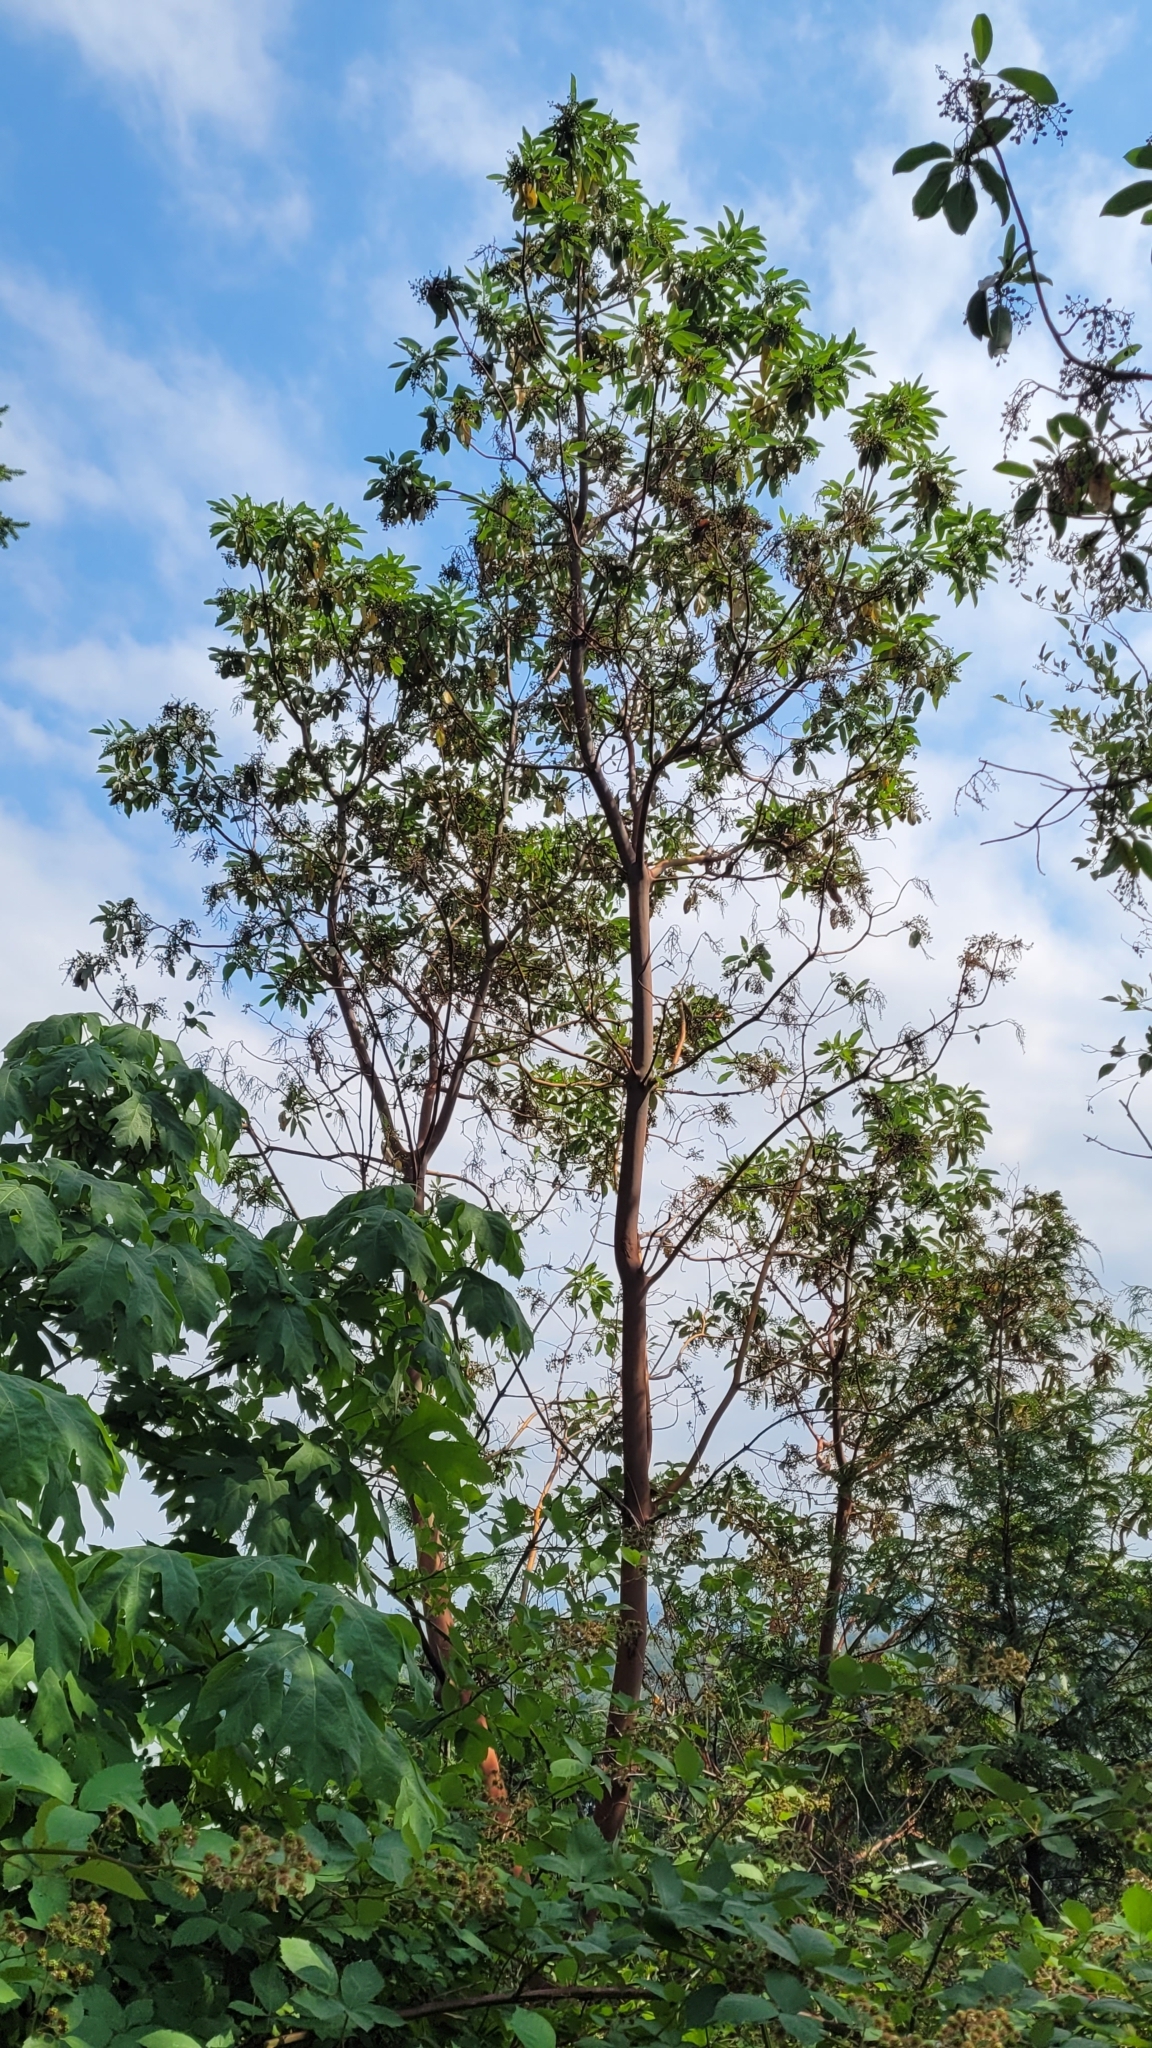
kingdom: Plantae
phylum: Tracheophyta
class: Magnoliopsida
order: Ericales
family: Ericaceae
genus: Arbutus
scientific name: Arbutus menziesii
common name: Pacific madrone
